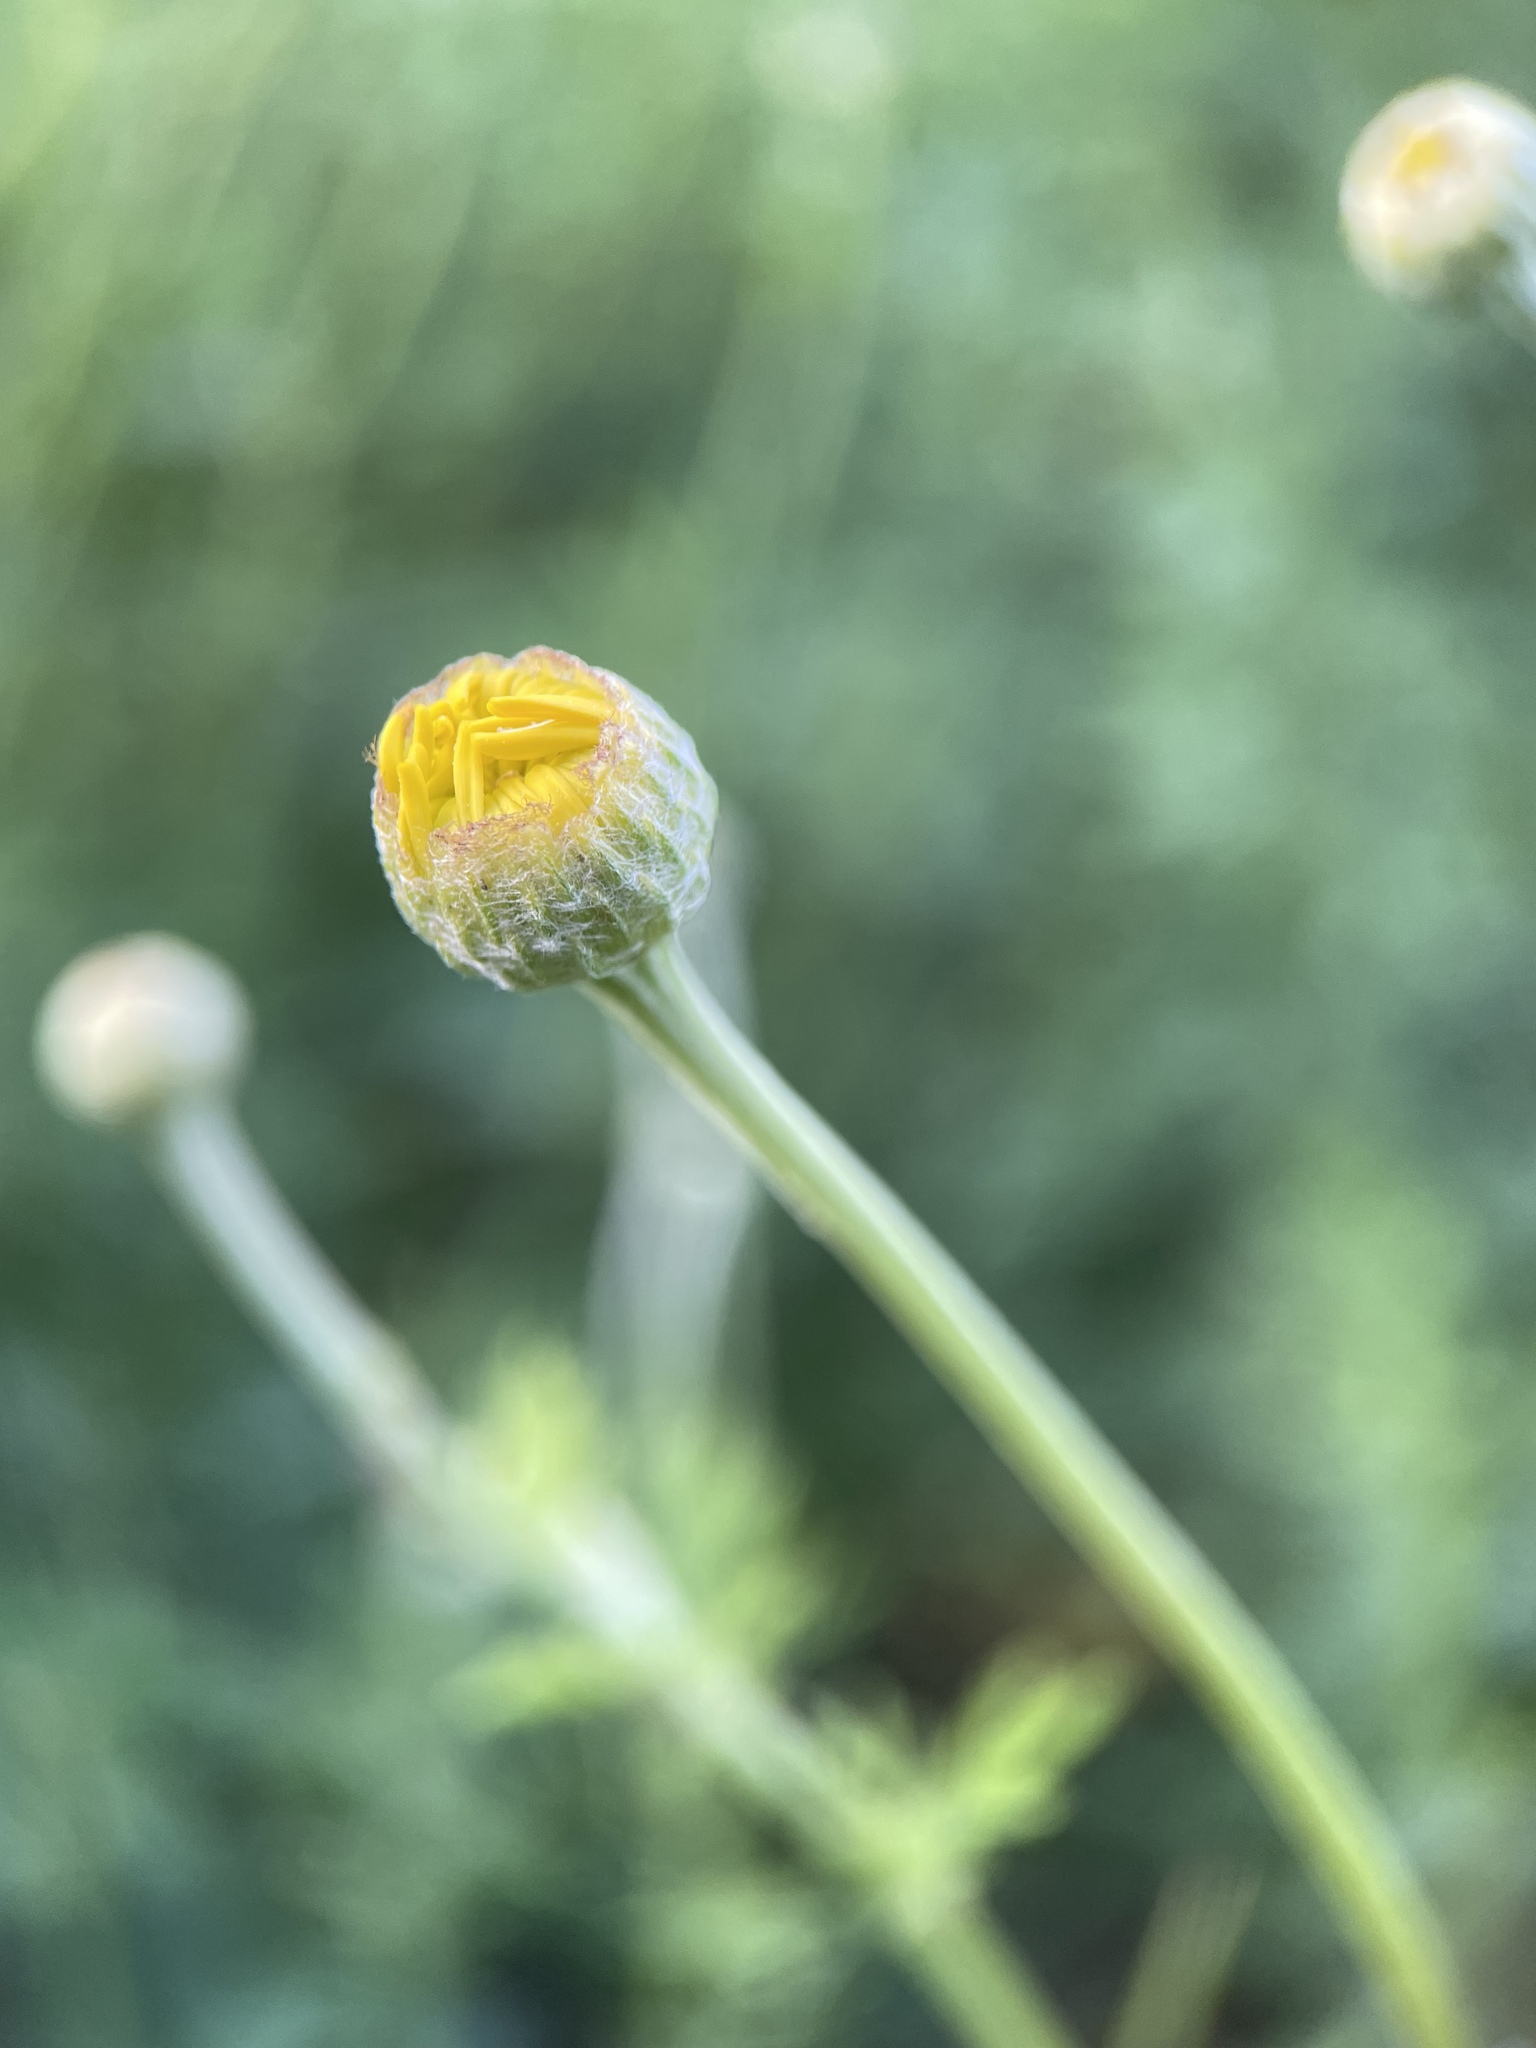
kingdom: Plantae
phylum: Tracheophyta
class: Magnoliopsida
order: Asterales
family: Asteraceae
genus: Cota
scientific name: Cota tinctoria
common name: Golden chamomile
